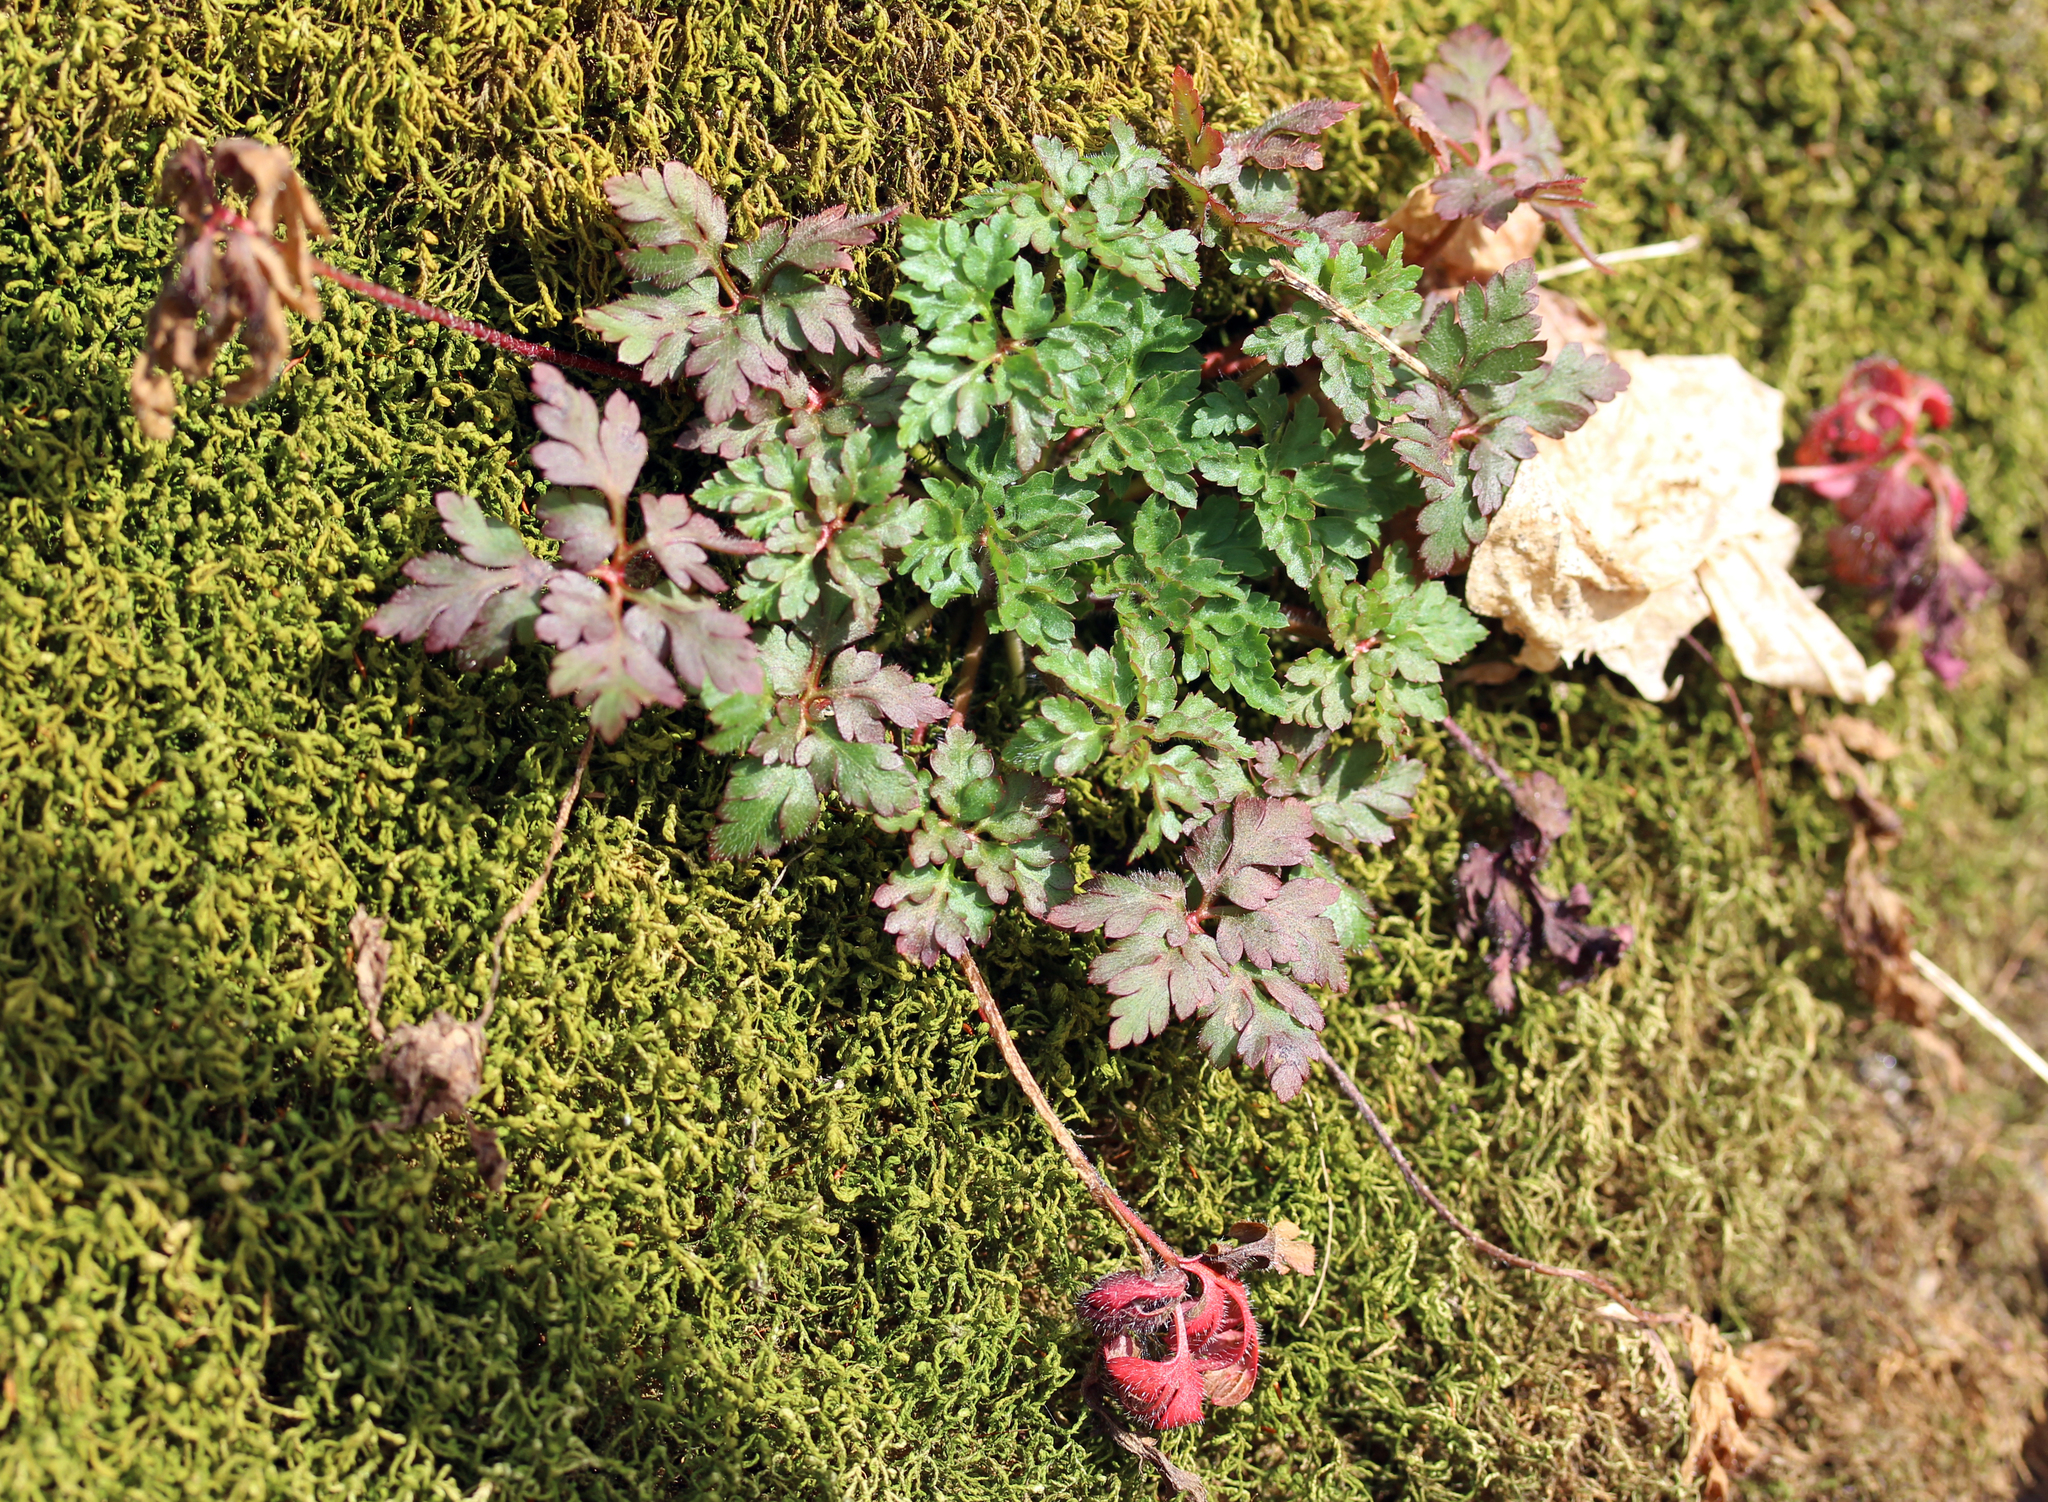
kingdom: Plantae
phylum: Tracheophyta
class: Magnoliopsida
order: Geraniales
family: Geraniaceae
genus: Geranium
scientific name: Geranium robertianum
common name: Herb-robert
